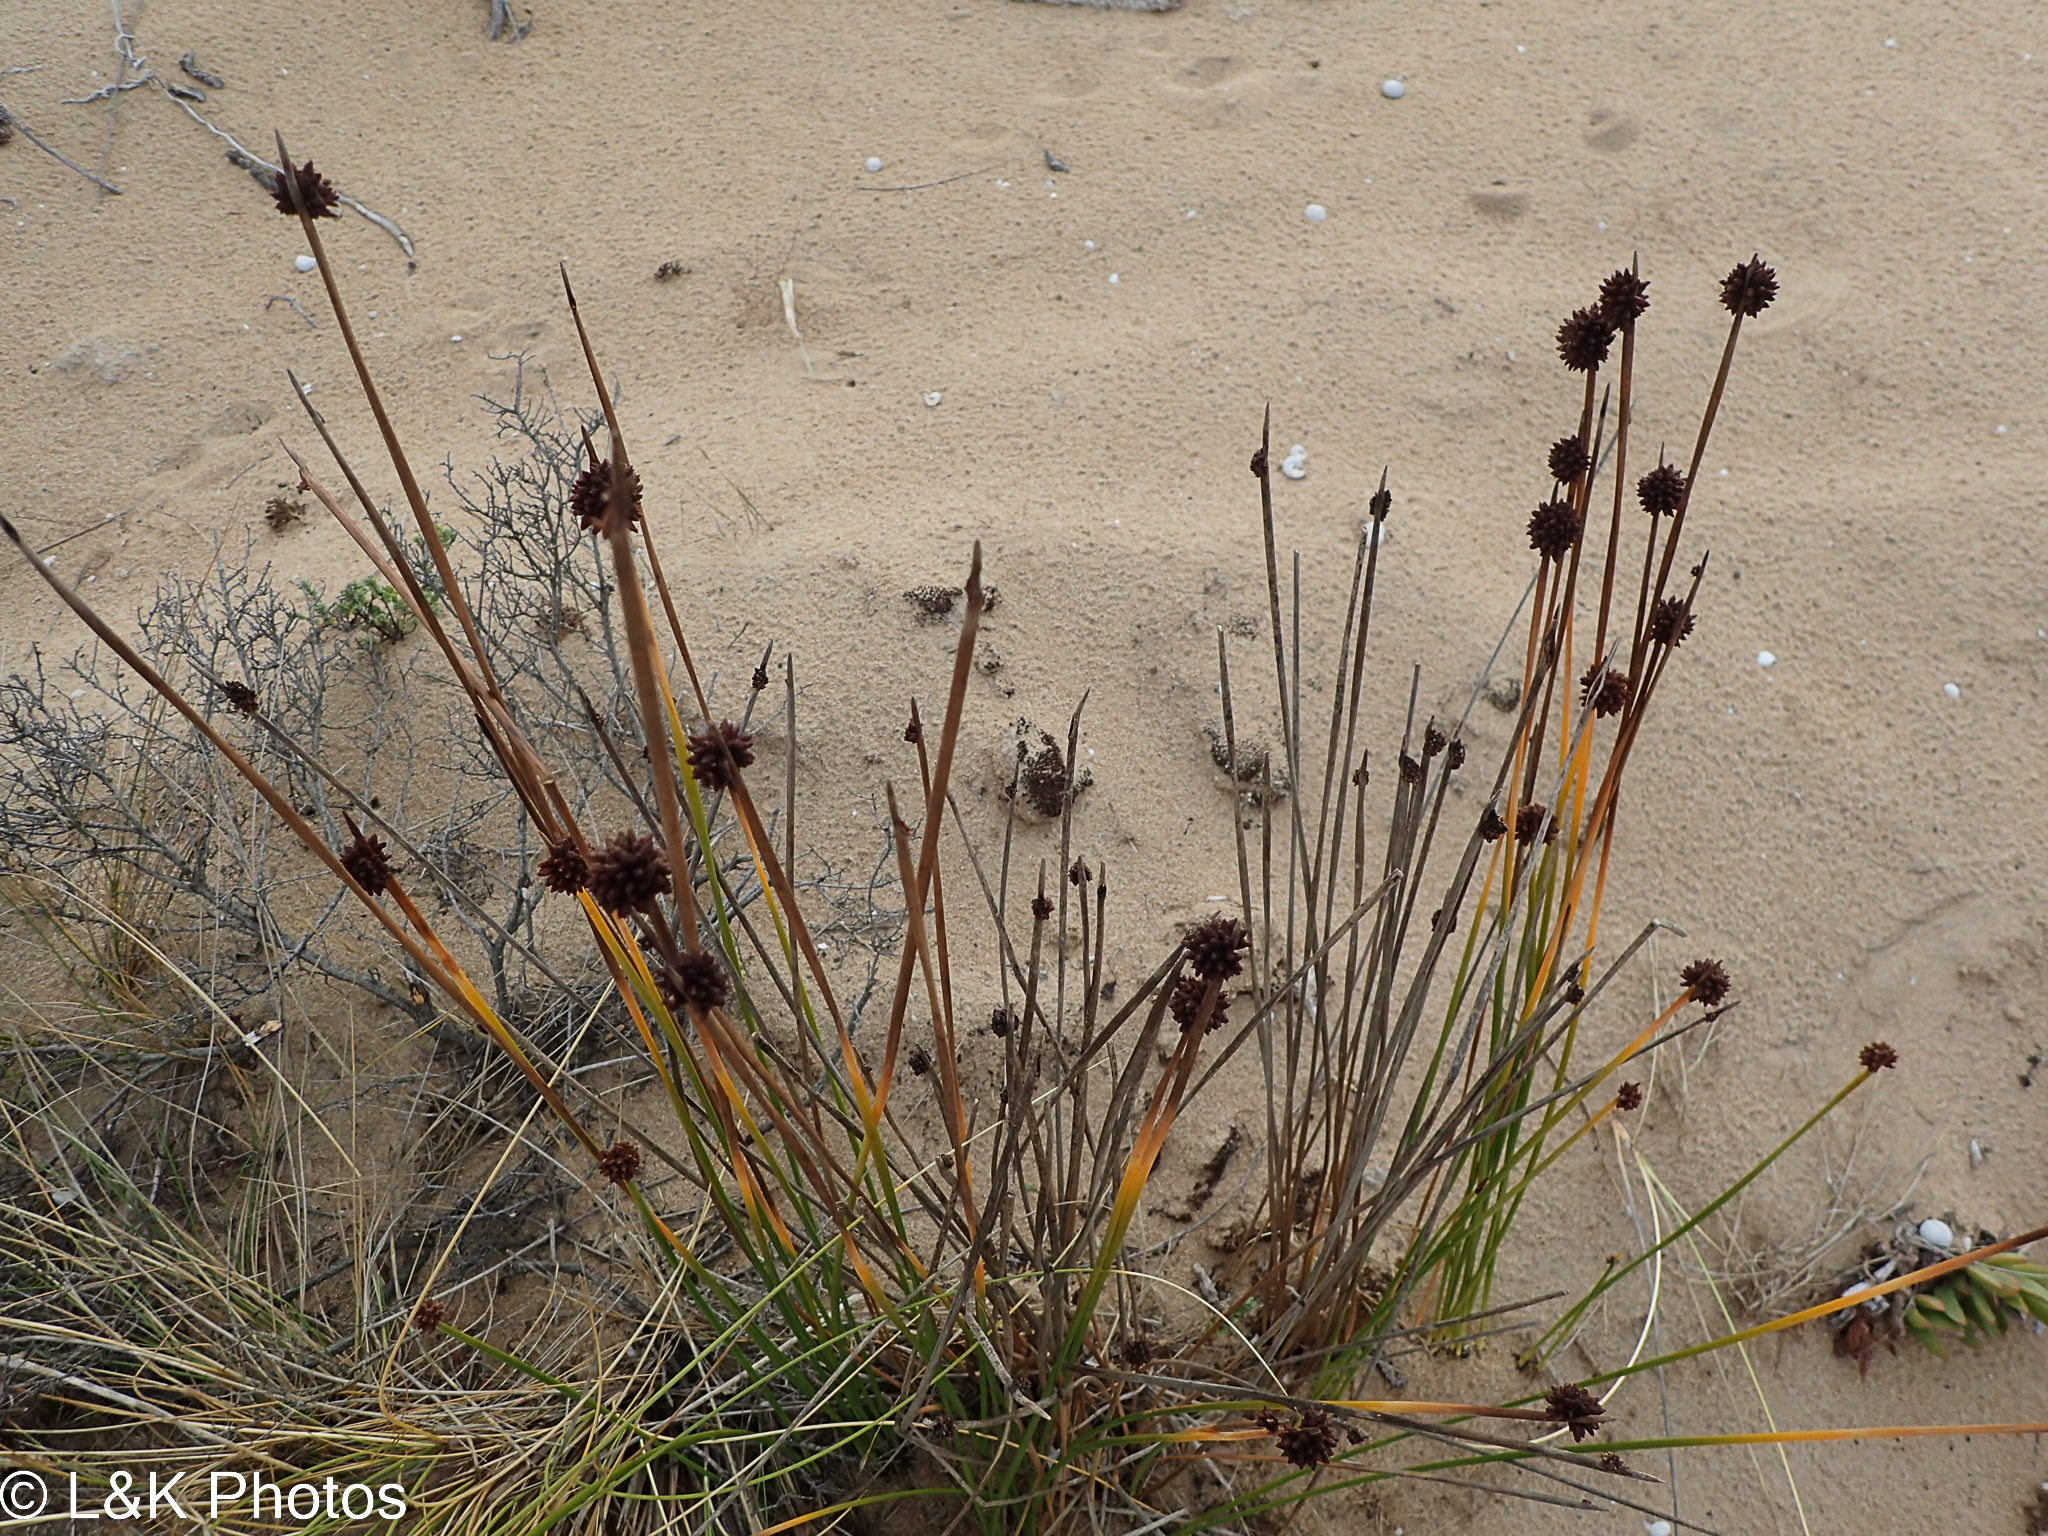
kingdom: Plantae
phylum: Tracheophyta
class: Liliopsida
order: Poales
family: Cyperaceae
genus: Ficinia
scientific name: Ficinia nodosa
